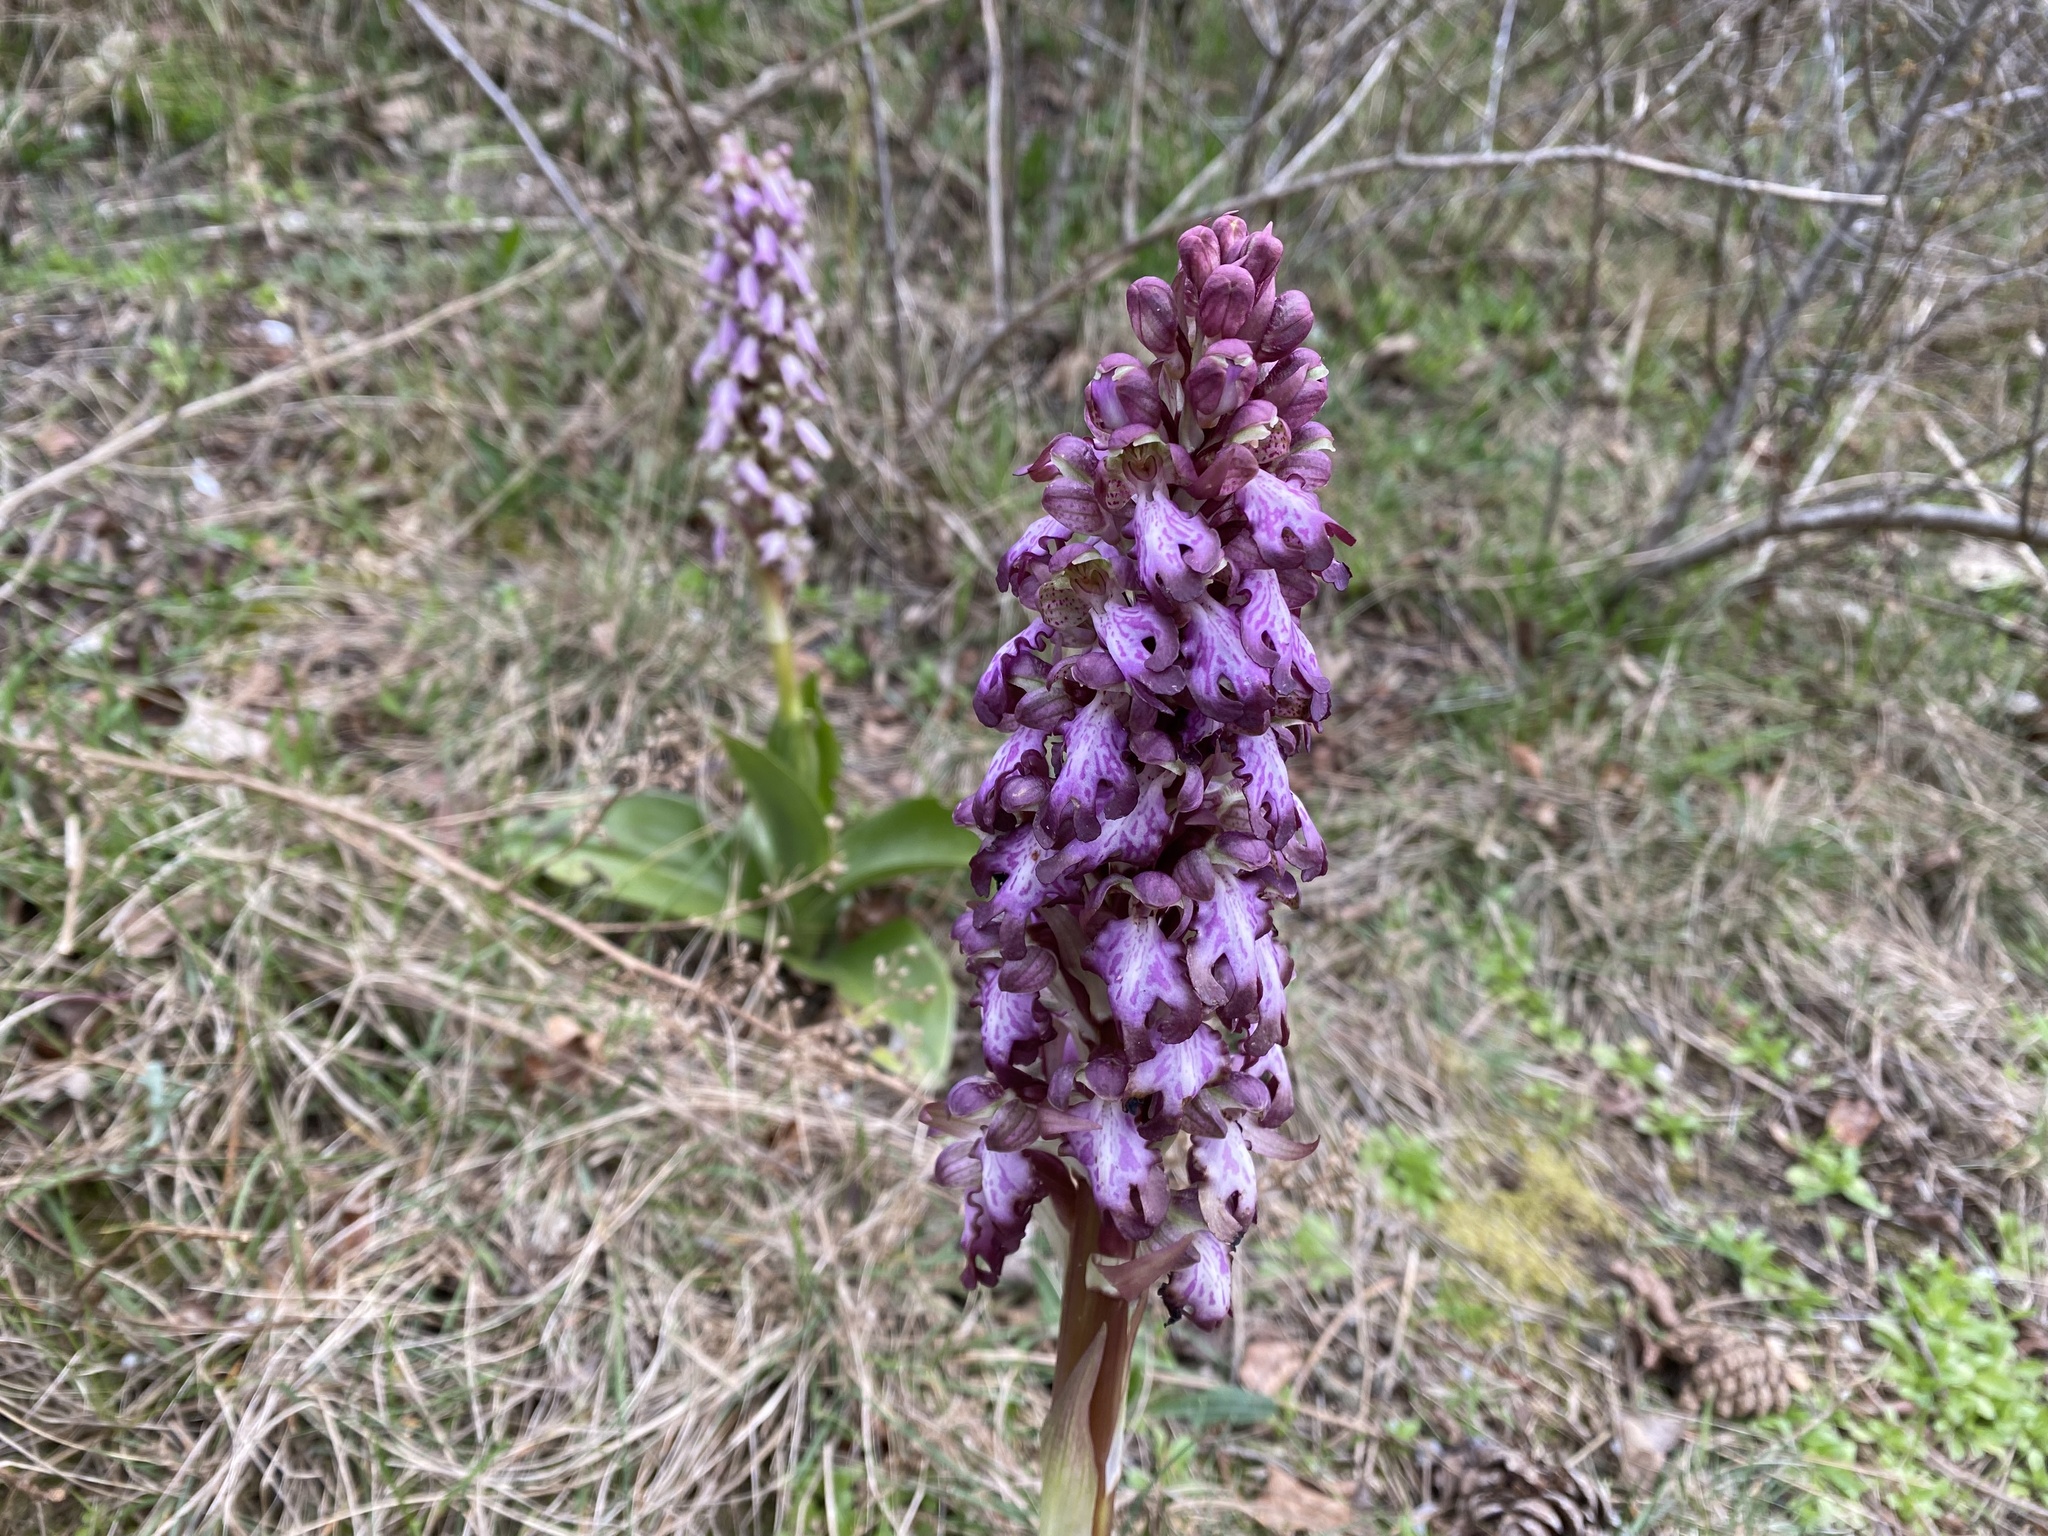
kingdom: Plantae
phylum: Tracheophyta
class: Liliopsida
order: Asparagales
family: Orchidaceae
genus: Himantoglossum
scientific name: Himantoglossum robertianum
